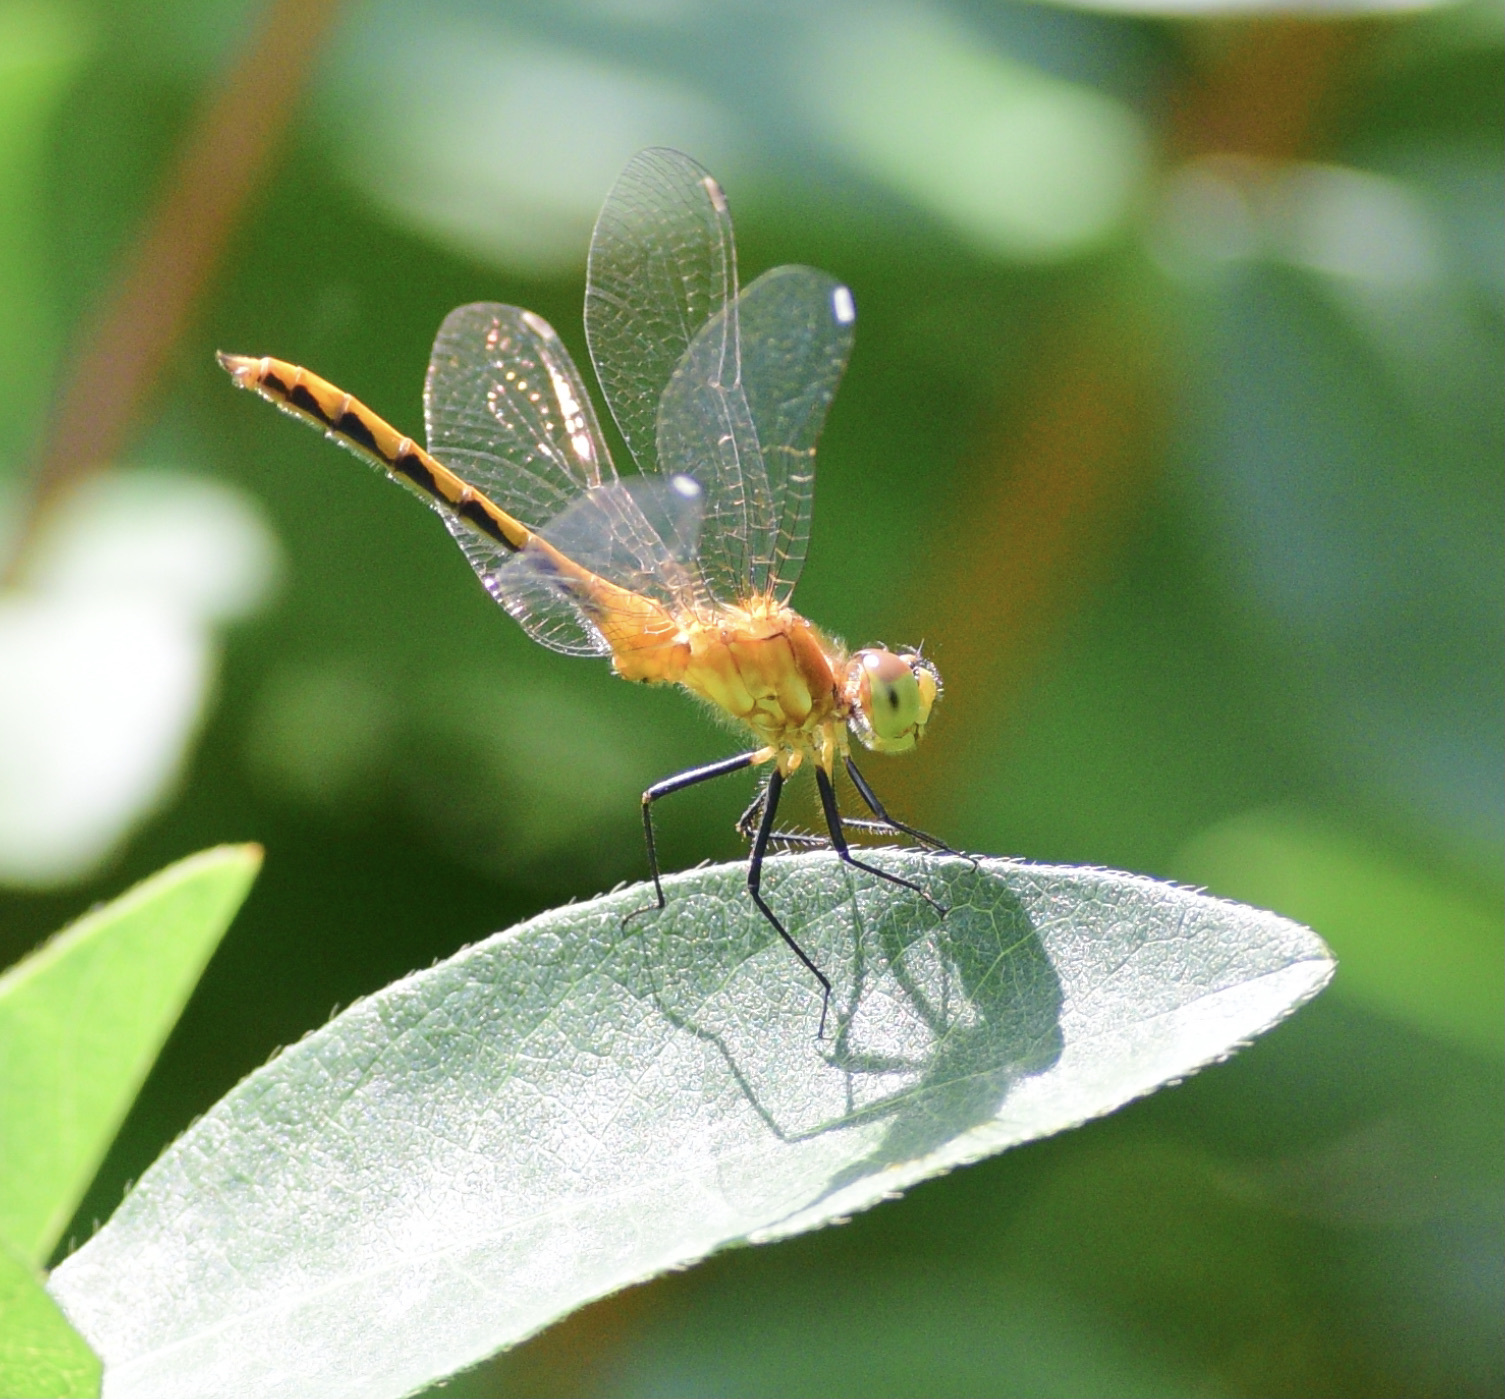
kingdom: Animalia
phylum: Arthropoda
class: Insecta
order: Odonata
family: Libellulidae
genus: Sympetrum
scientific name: Sympetrum
